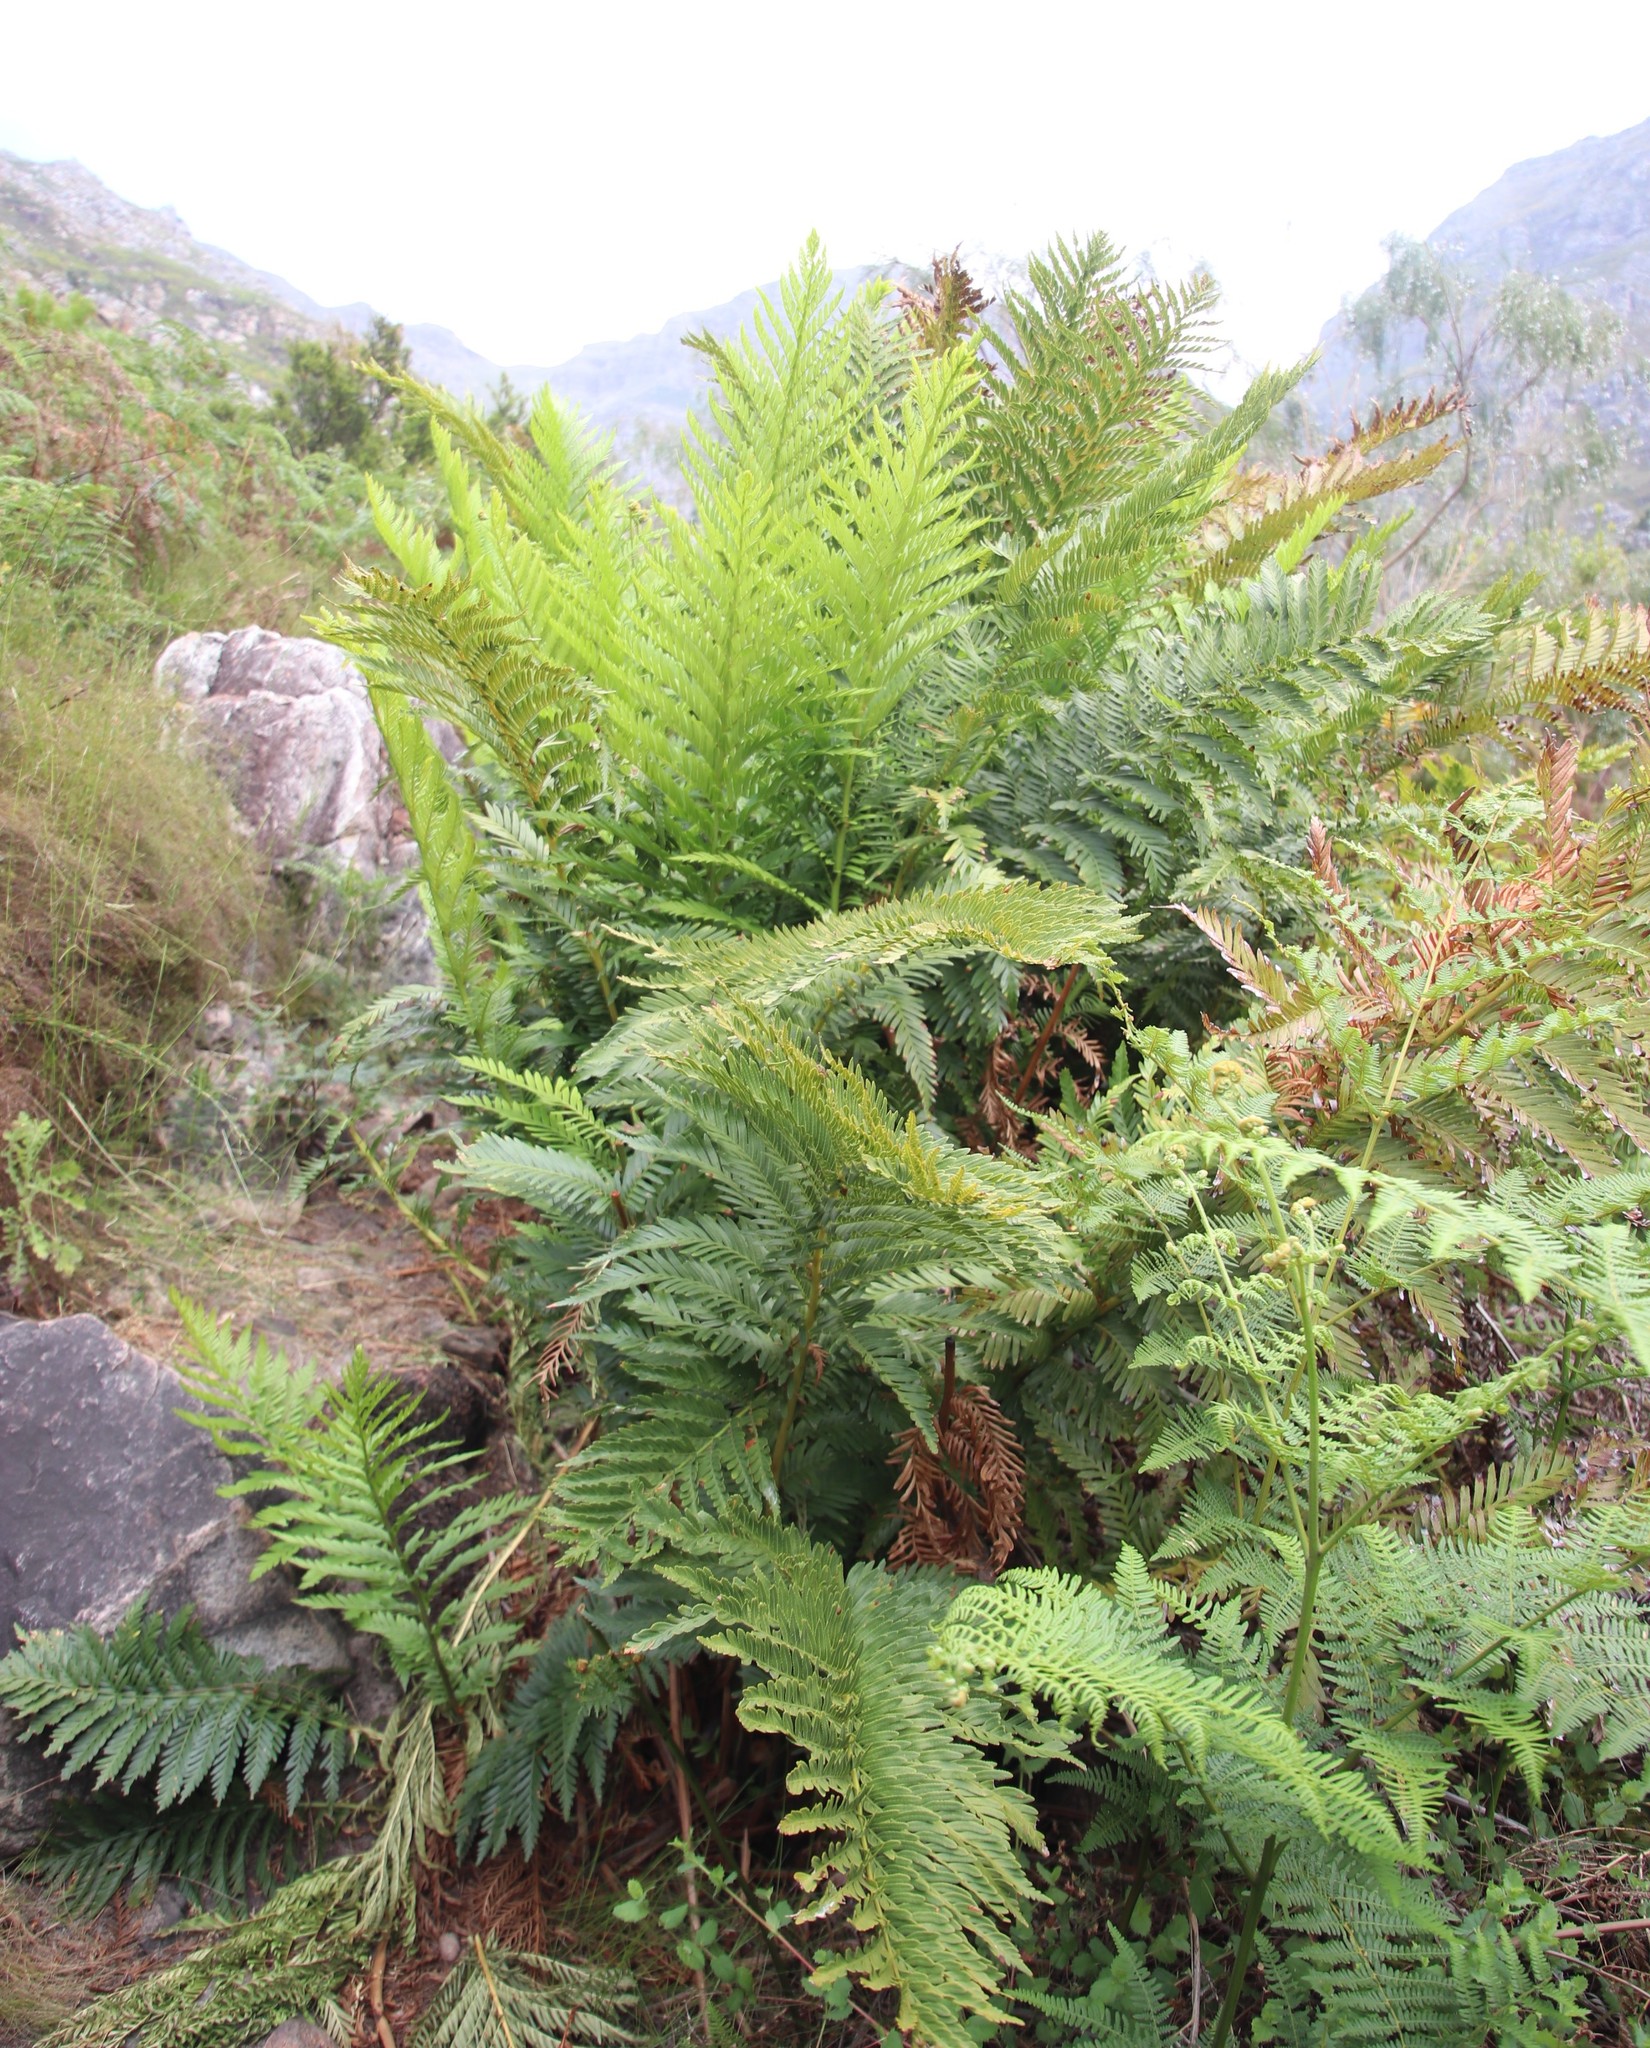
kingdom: Plantae
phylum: Tracheophyta
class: Polypodiopsida
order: Osmundales
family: Osmundaceae
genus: Todea
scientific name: Todea barbara
